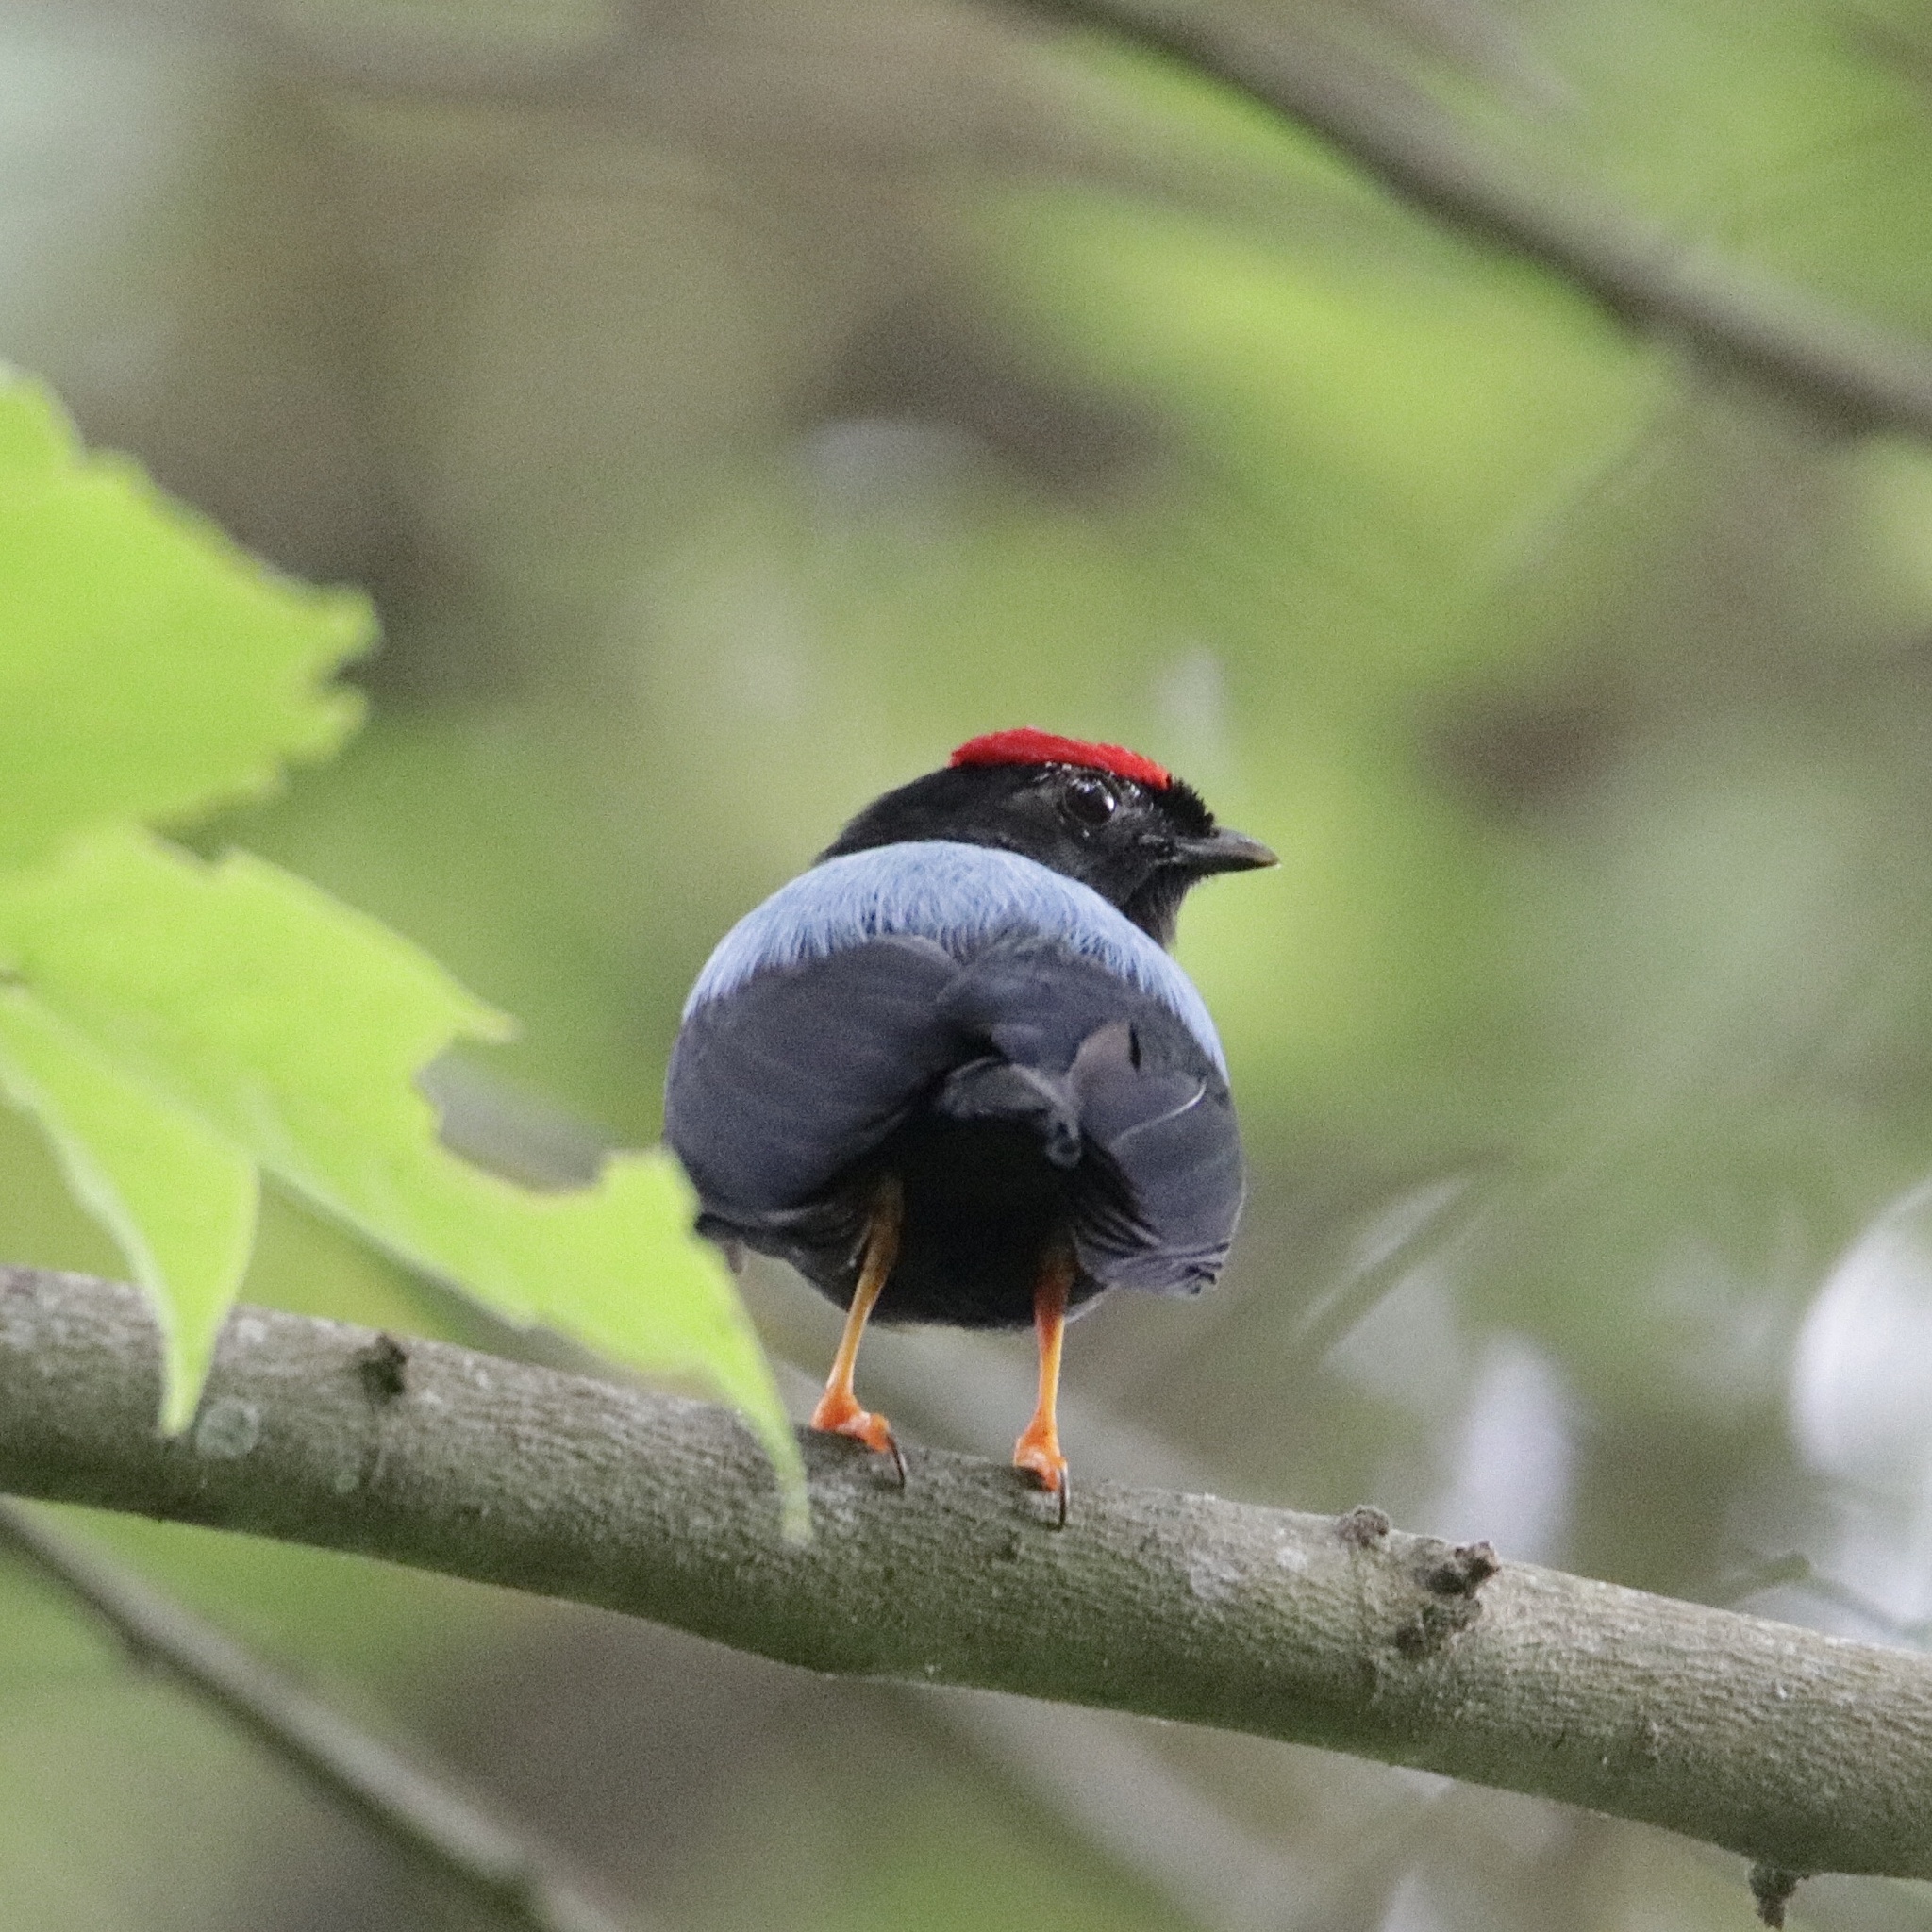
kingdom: Animalia
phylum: Chordata
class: Aves
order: Passeriformes
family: Pipridae
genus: Chiroxiphia
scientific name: Chiroxiphia lanceolata
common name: Lance-tailed manakin
